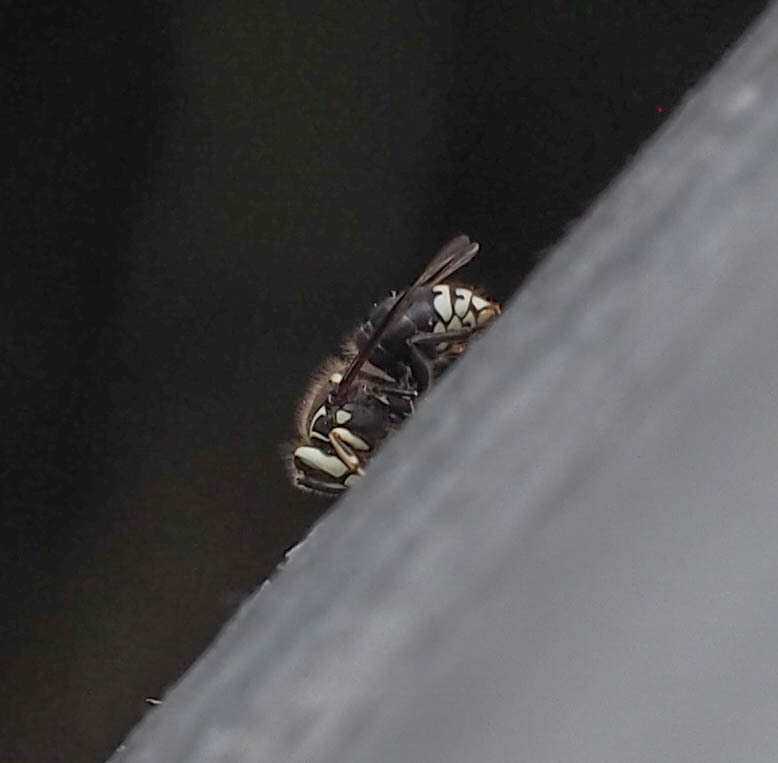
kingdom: Animalia
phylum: Arthropoda
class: Insecta
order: Hymenoptera
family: Vespidae
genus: Dolichovespula
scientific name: Dolichovespula maculata
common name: Bald-faced hornet
